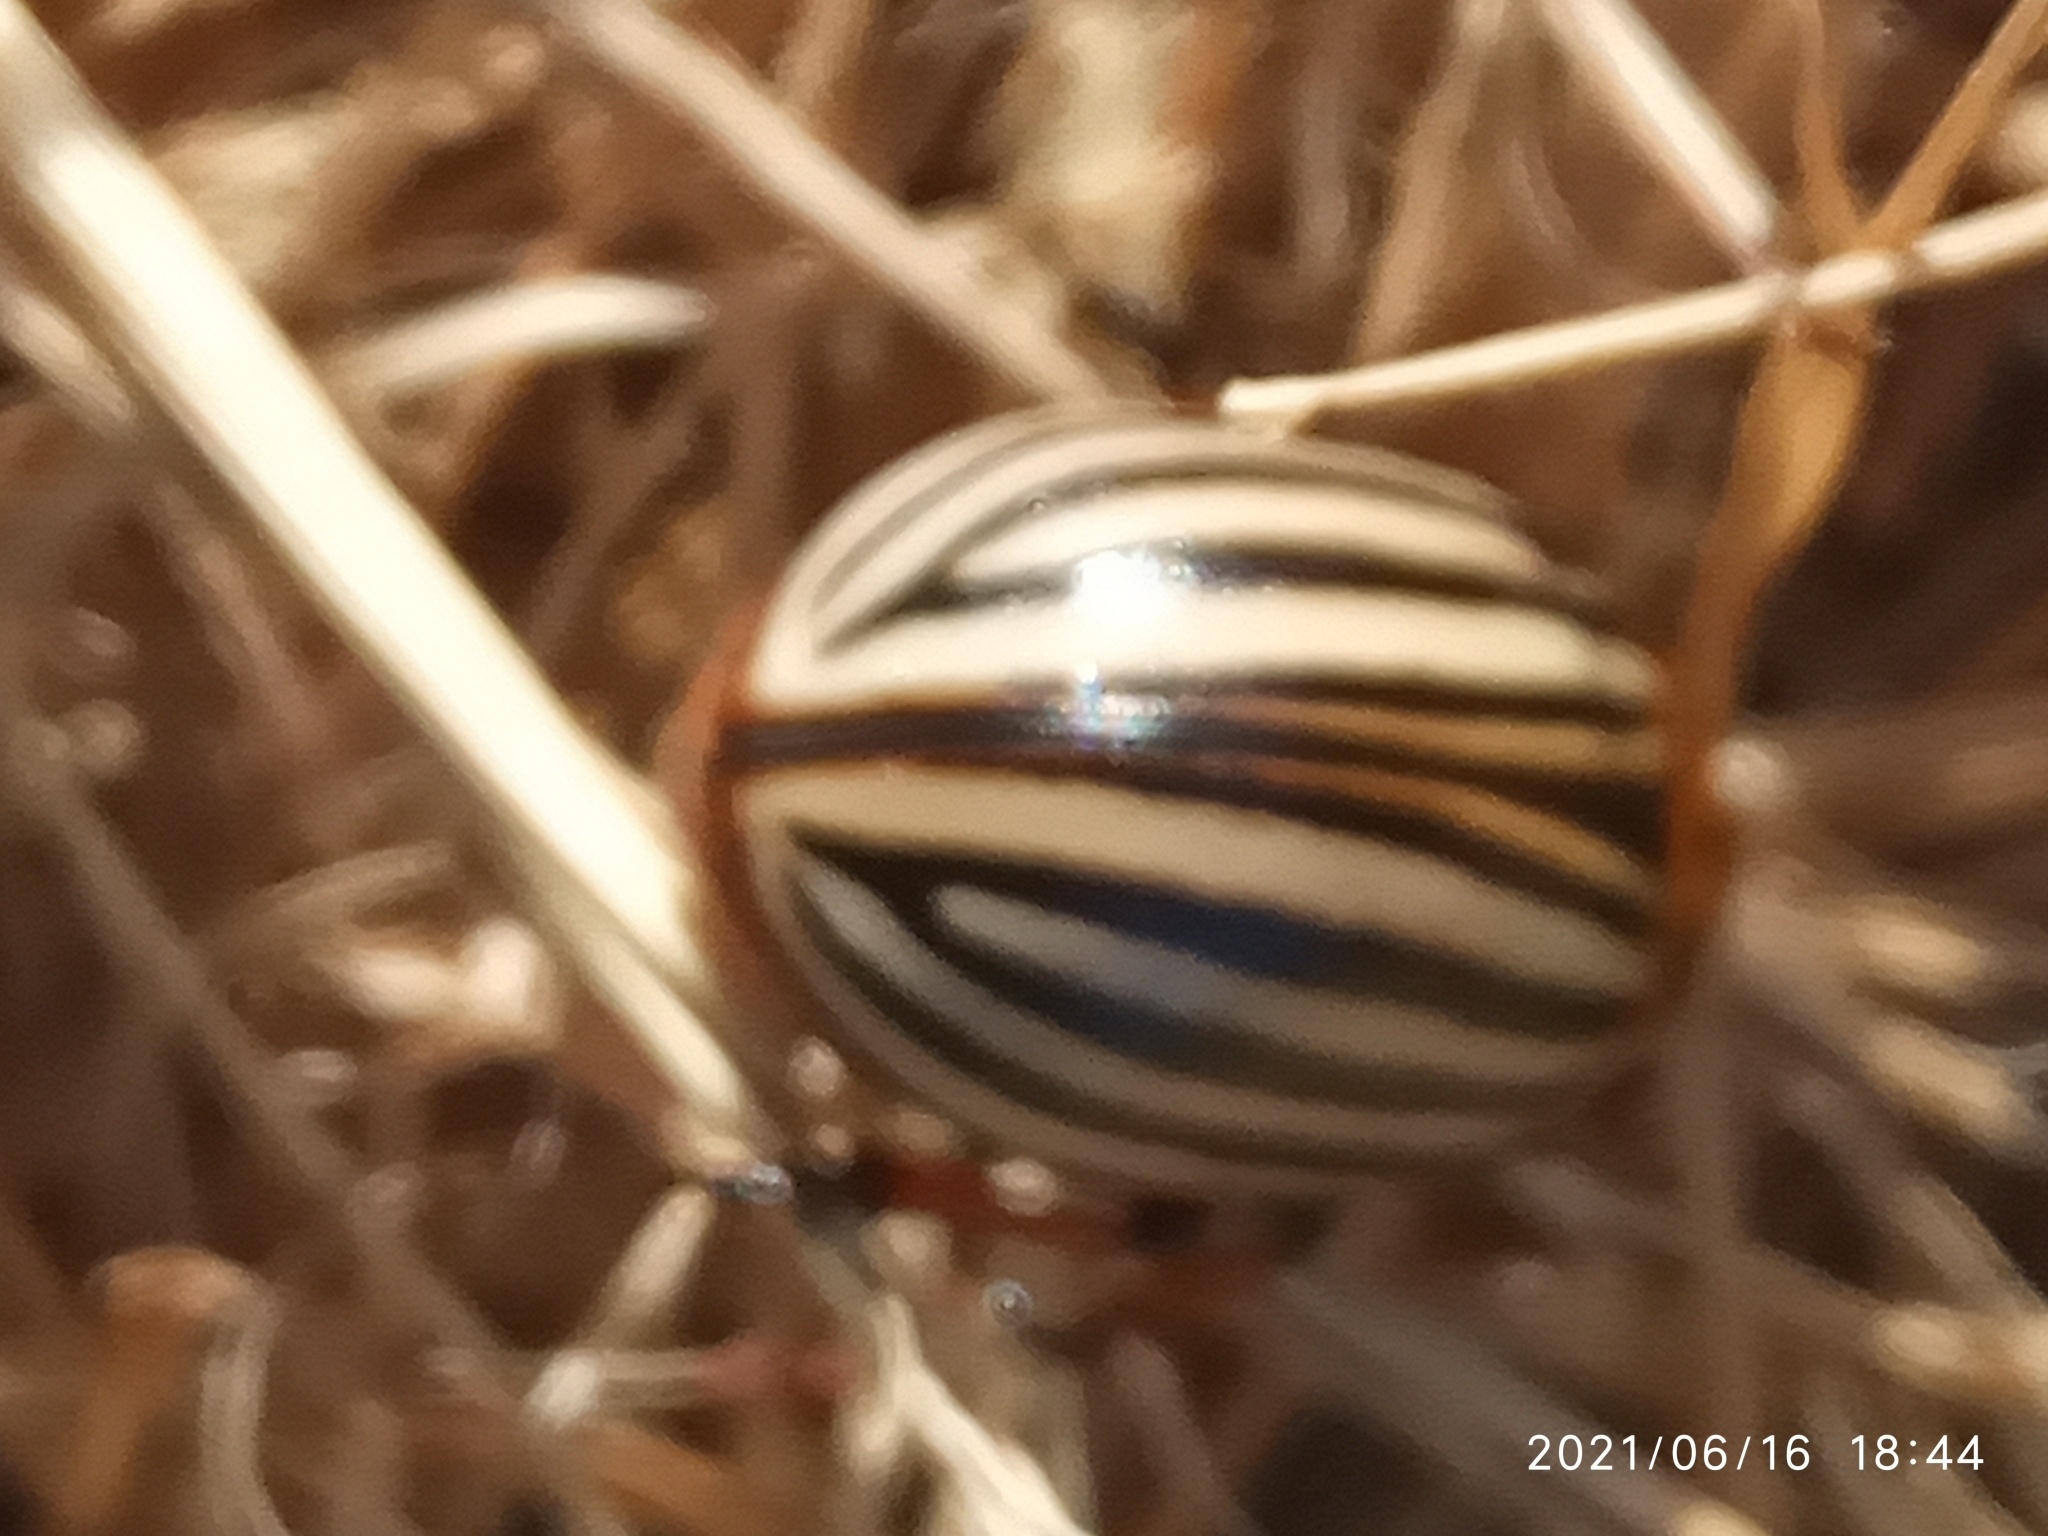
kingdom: Animalia
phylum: Arthropoda
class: Insecta
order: Coleoptera
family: Chrysomelidae
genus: Leptinotarsa
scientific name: Leptinotarsa decemlineata
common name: Colorado potato beetle
